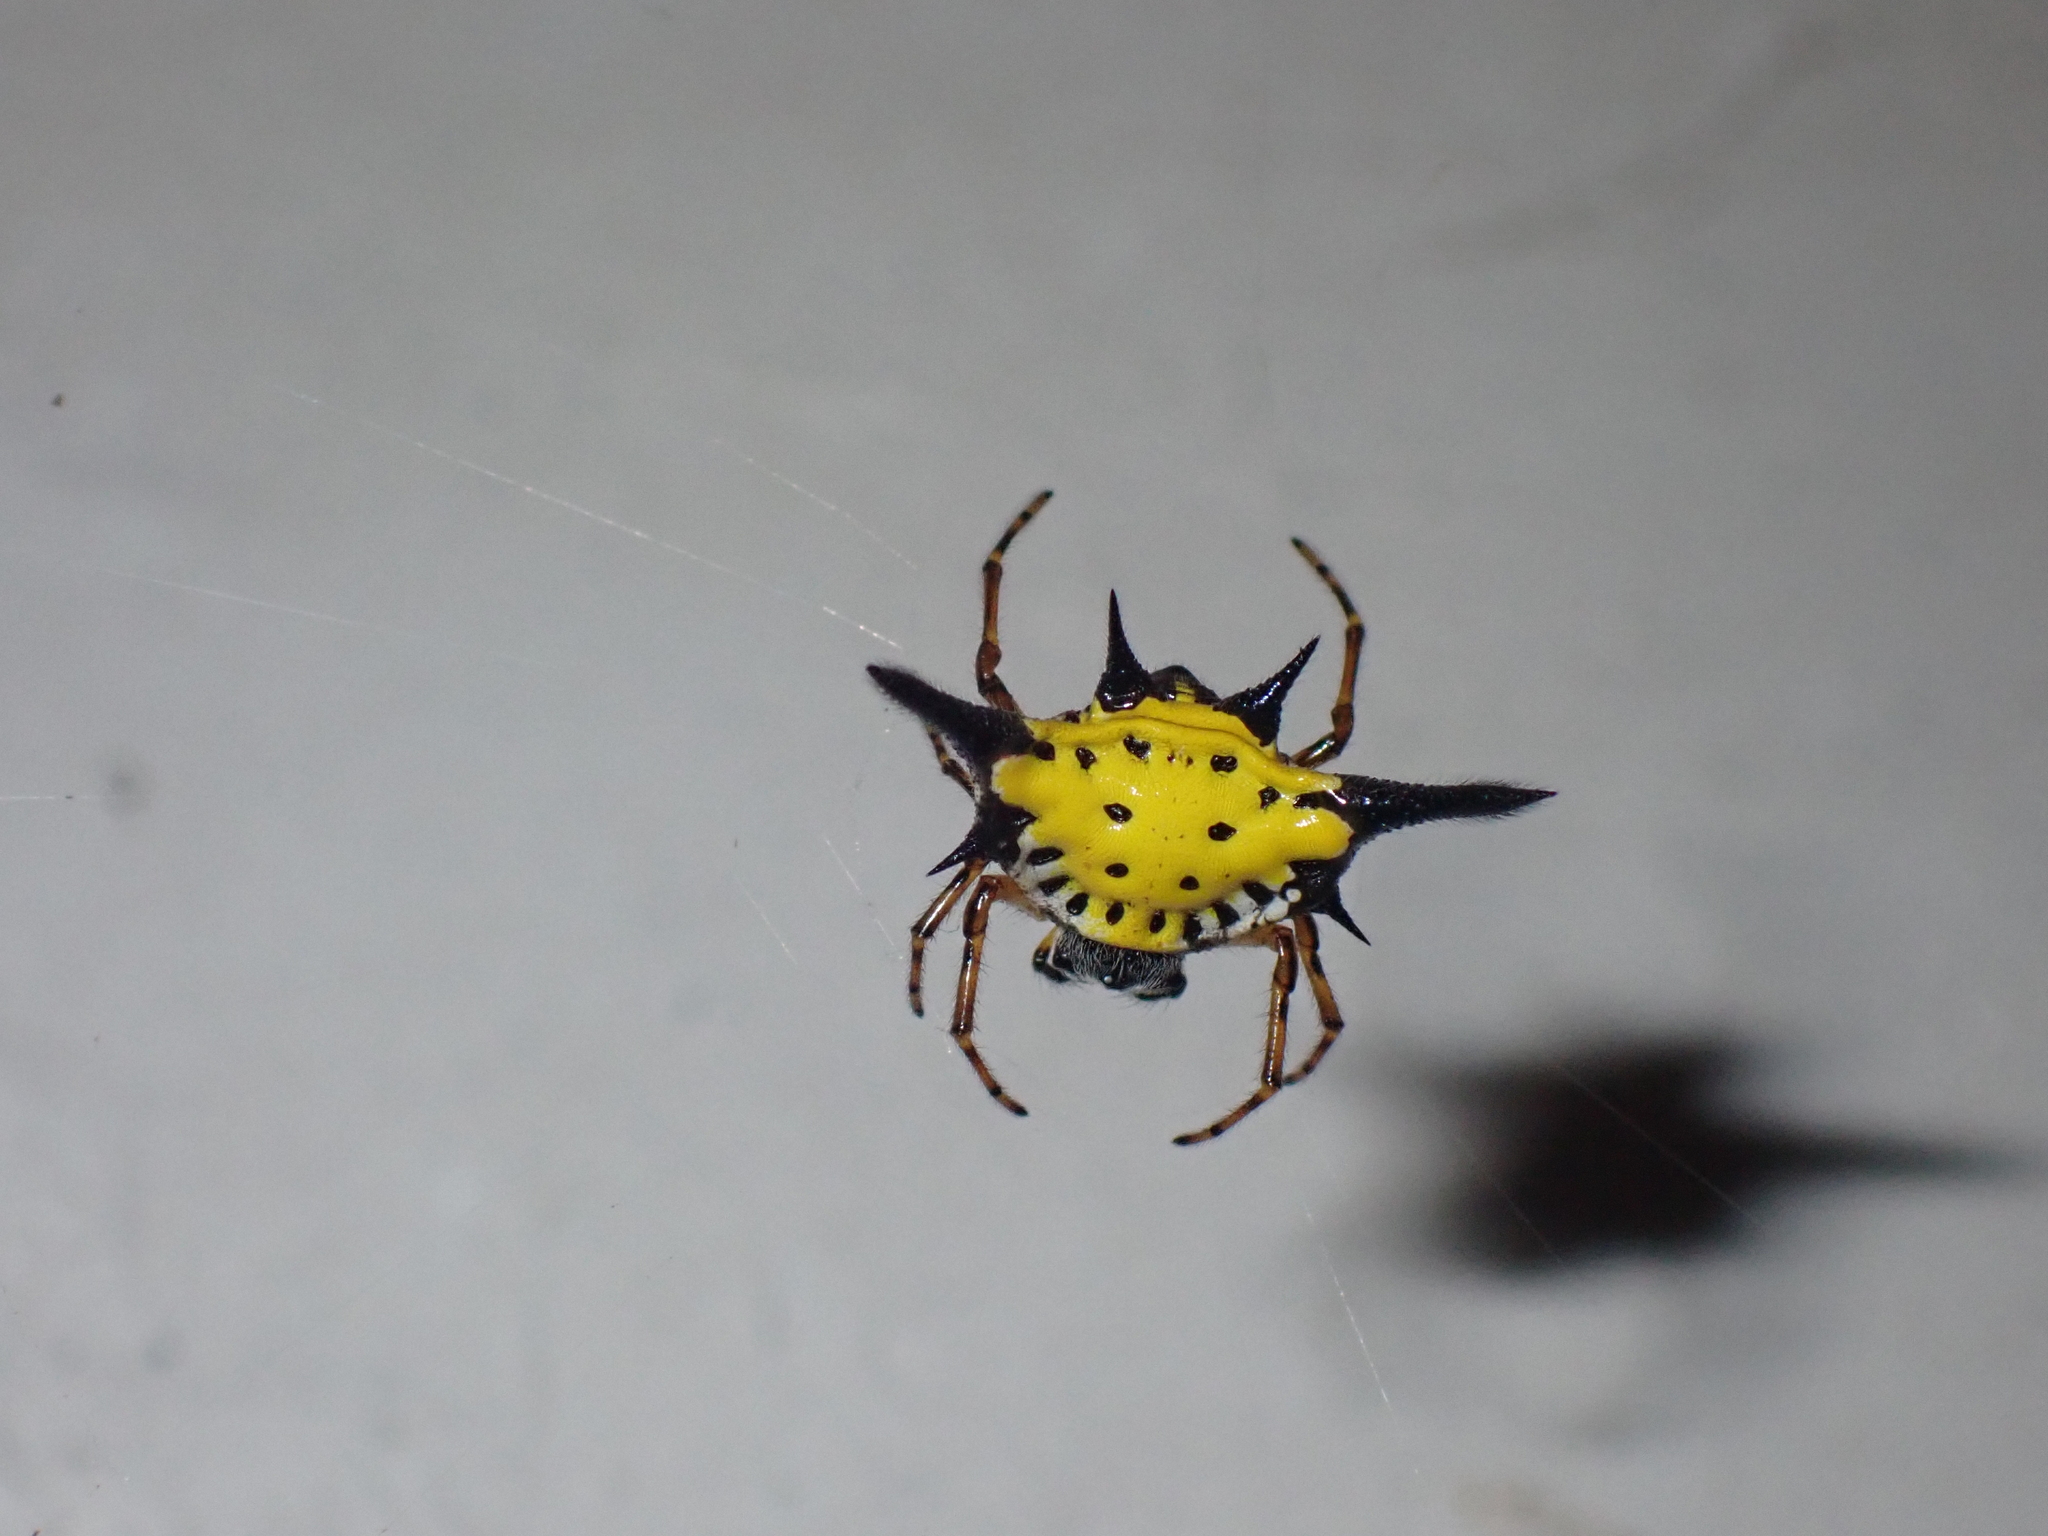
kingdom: Animalia
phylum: Arthropoda
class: Arachnida
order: Araneae
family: Araneidae
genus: Macracantha
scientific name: Macracantha hasselti
